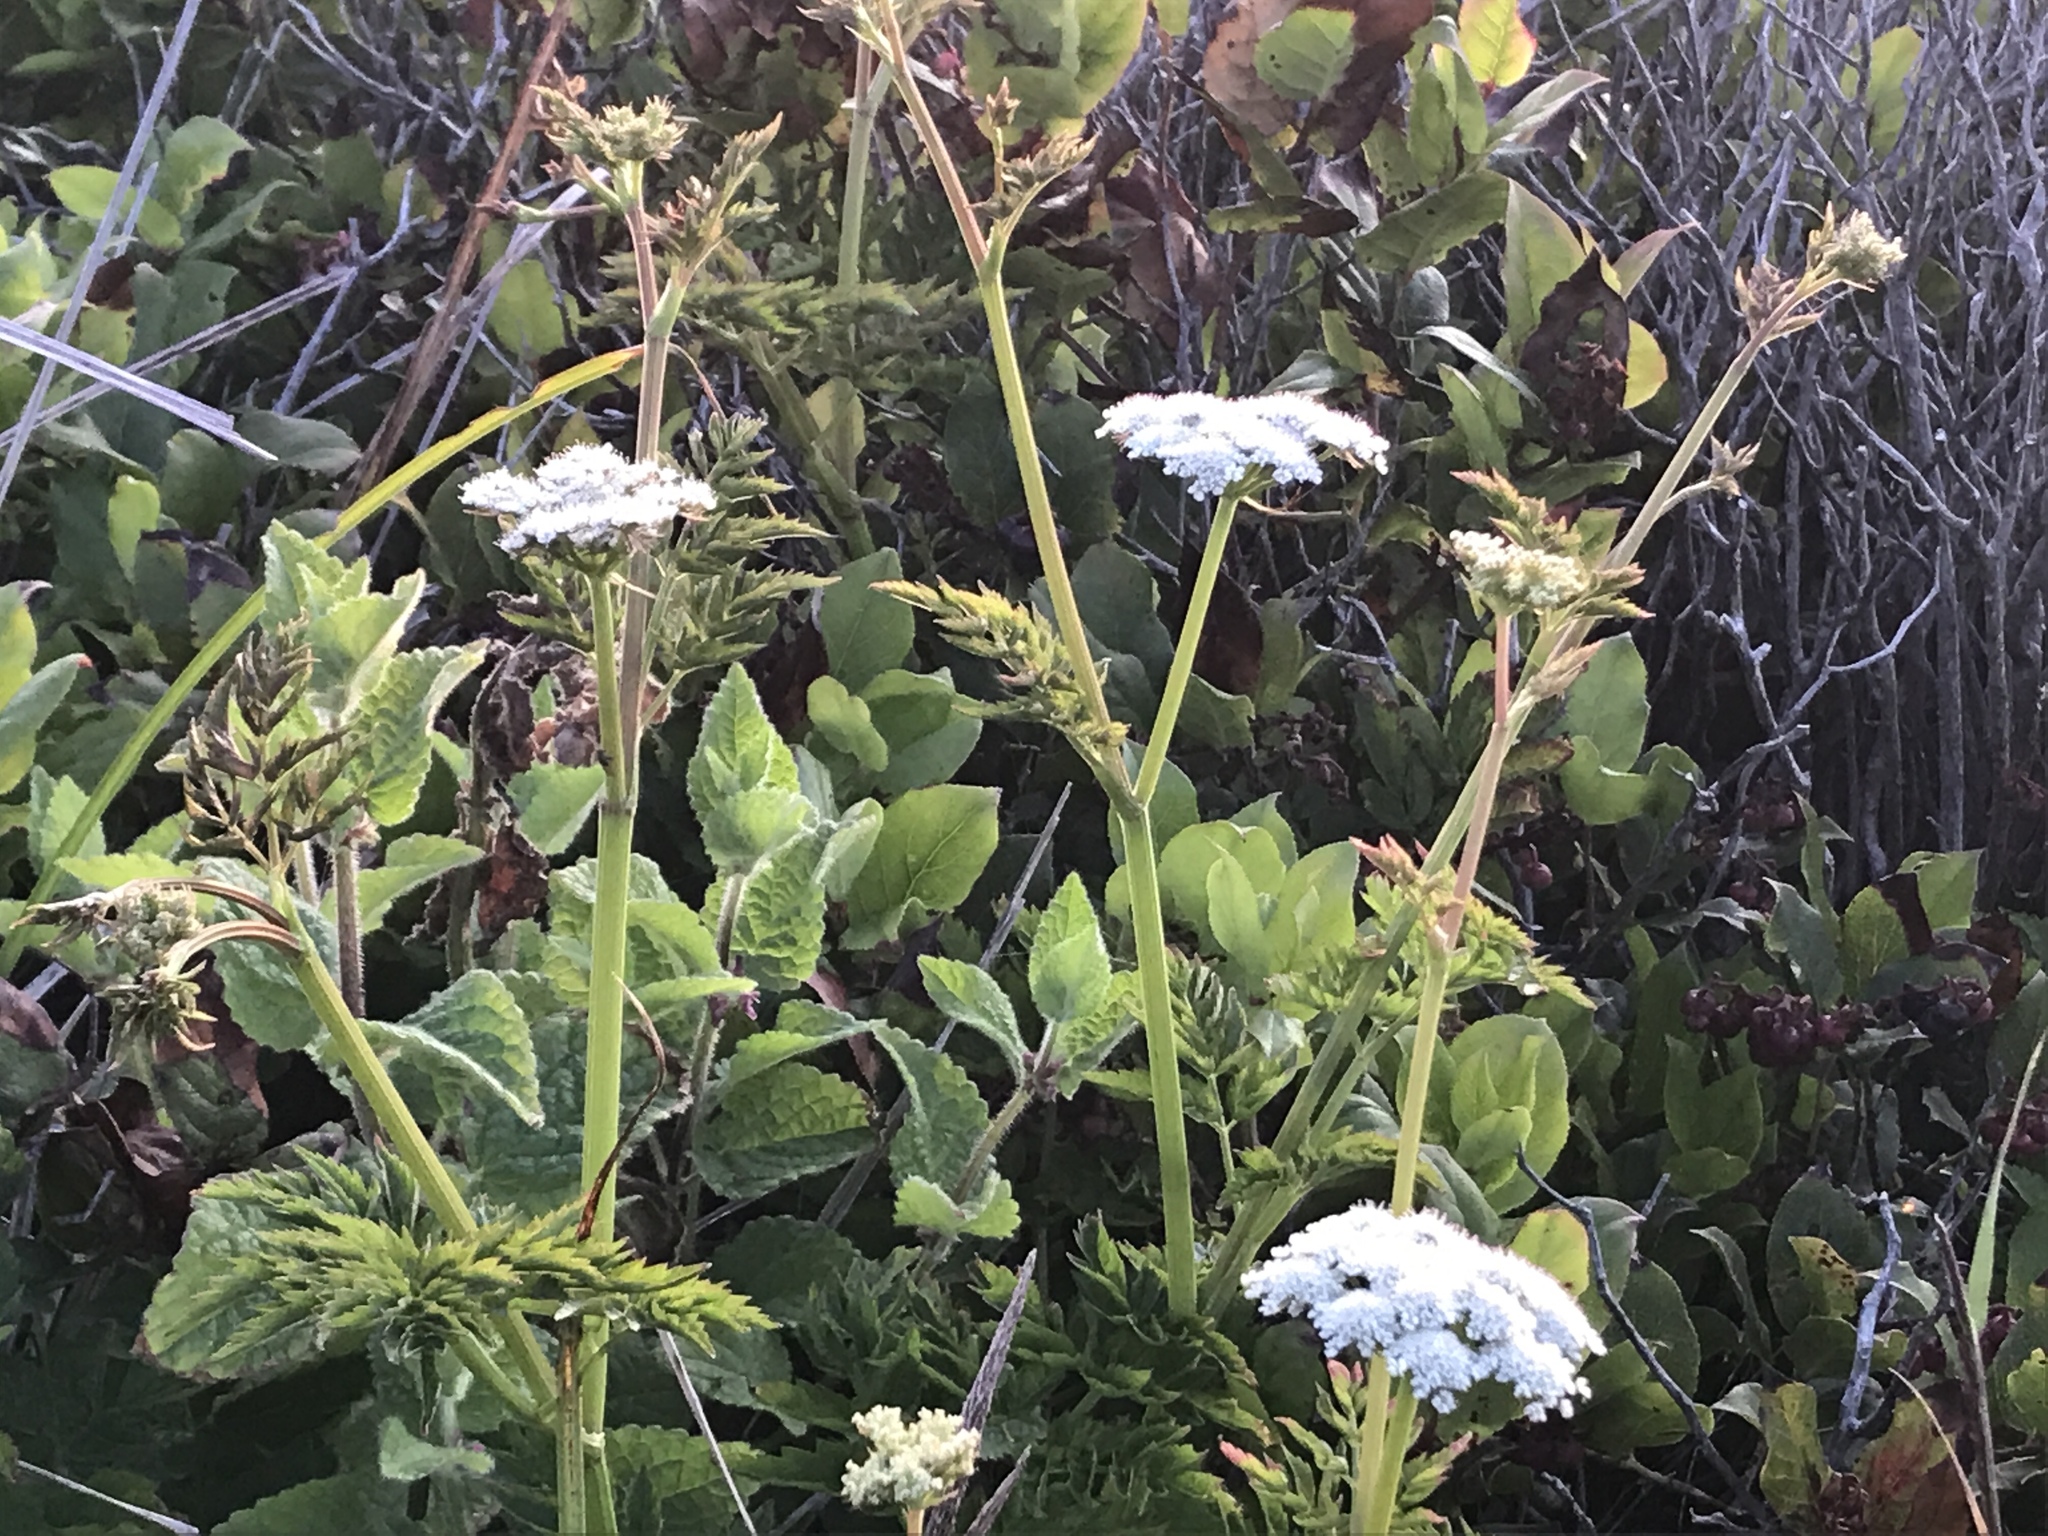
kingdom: Plantae
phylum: Tracheophyta
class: Magnoliopsida
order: Apiales
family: Apiaceae
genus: Oenanthe
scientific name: Oenanthe sarmentosa
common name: American water-parsley
